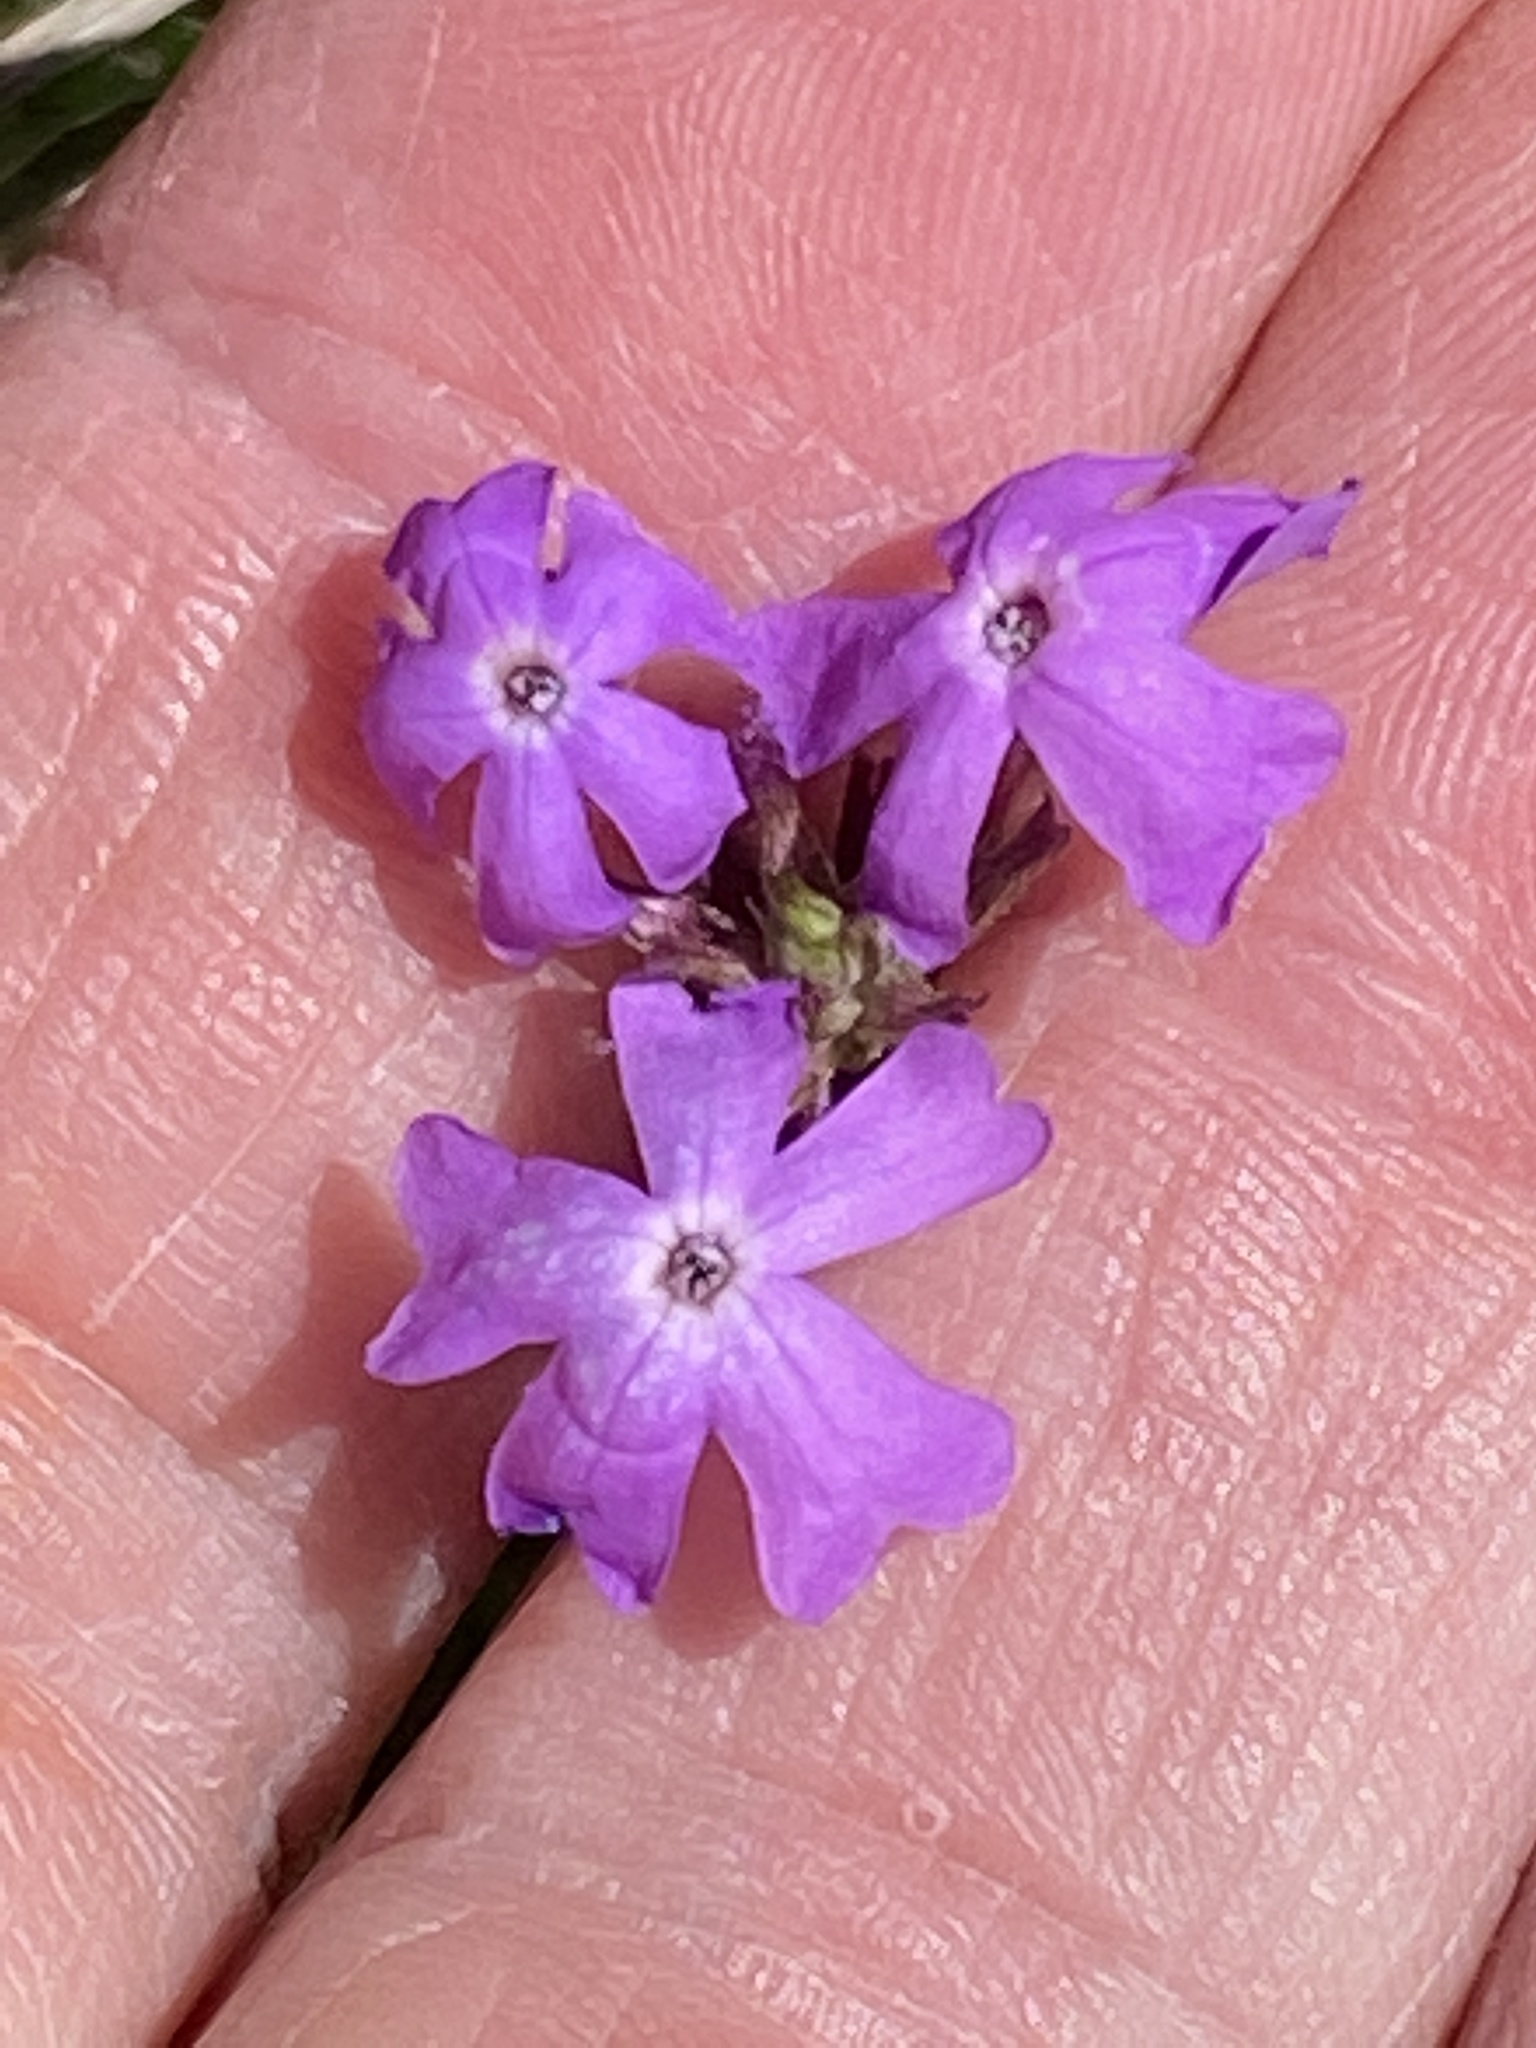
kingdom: Plantae
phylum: Tracheophyta
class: Magnoliopsida
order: Lamiales
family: Verbenaceae
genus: Verbena
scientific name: Verbena aristigera
